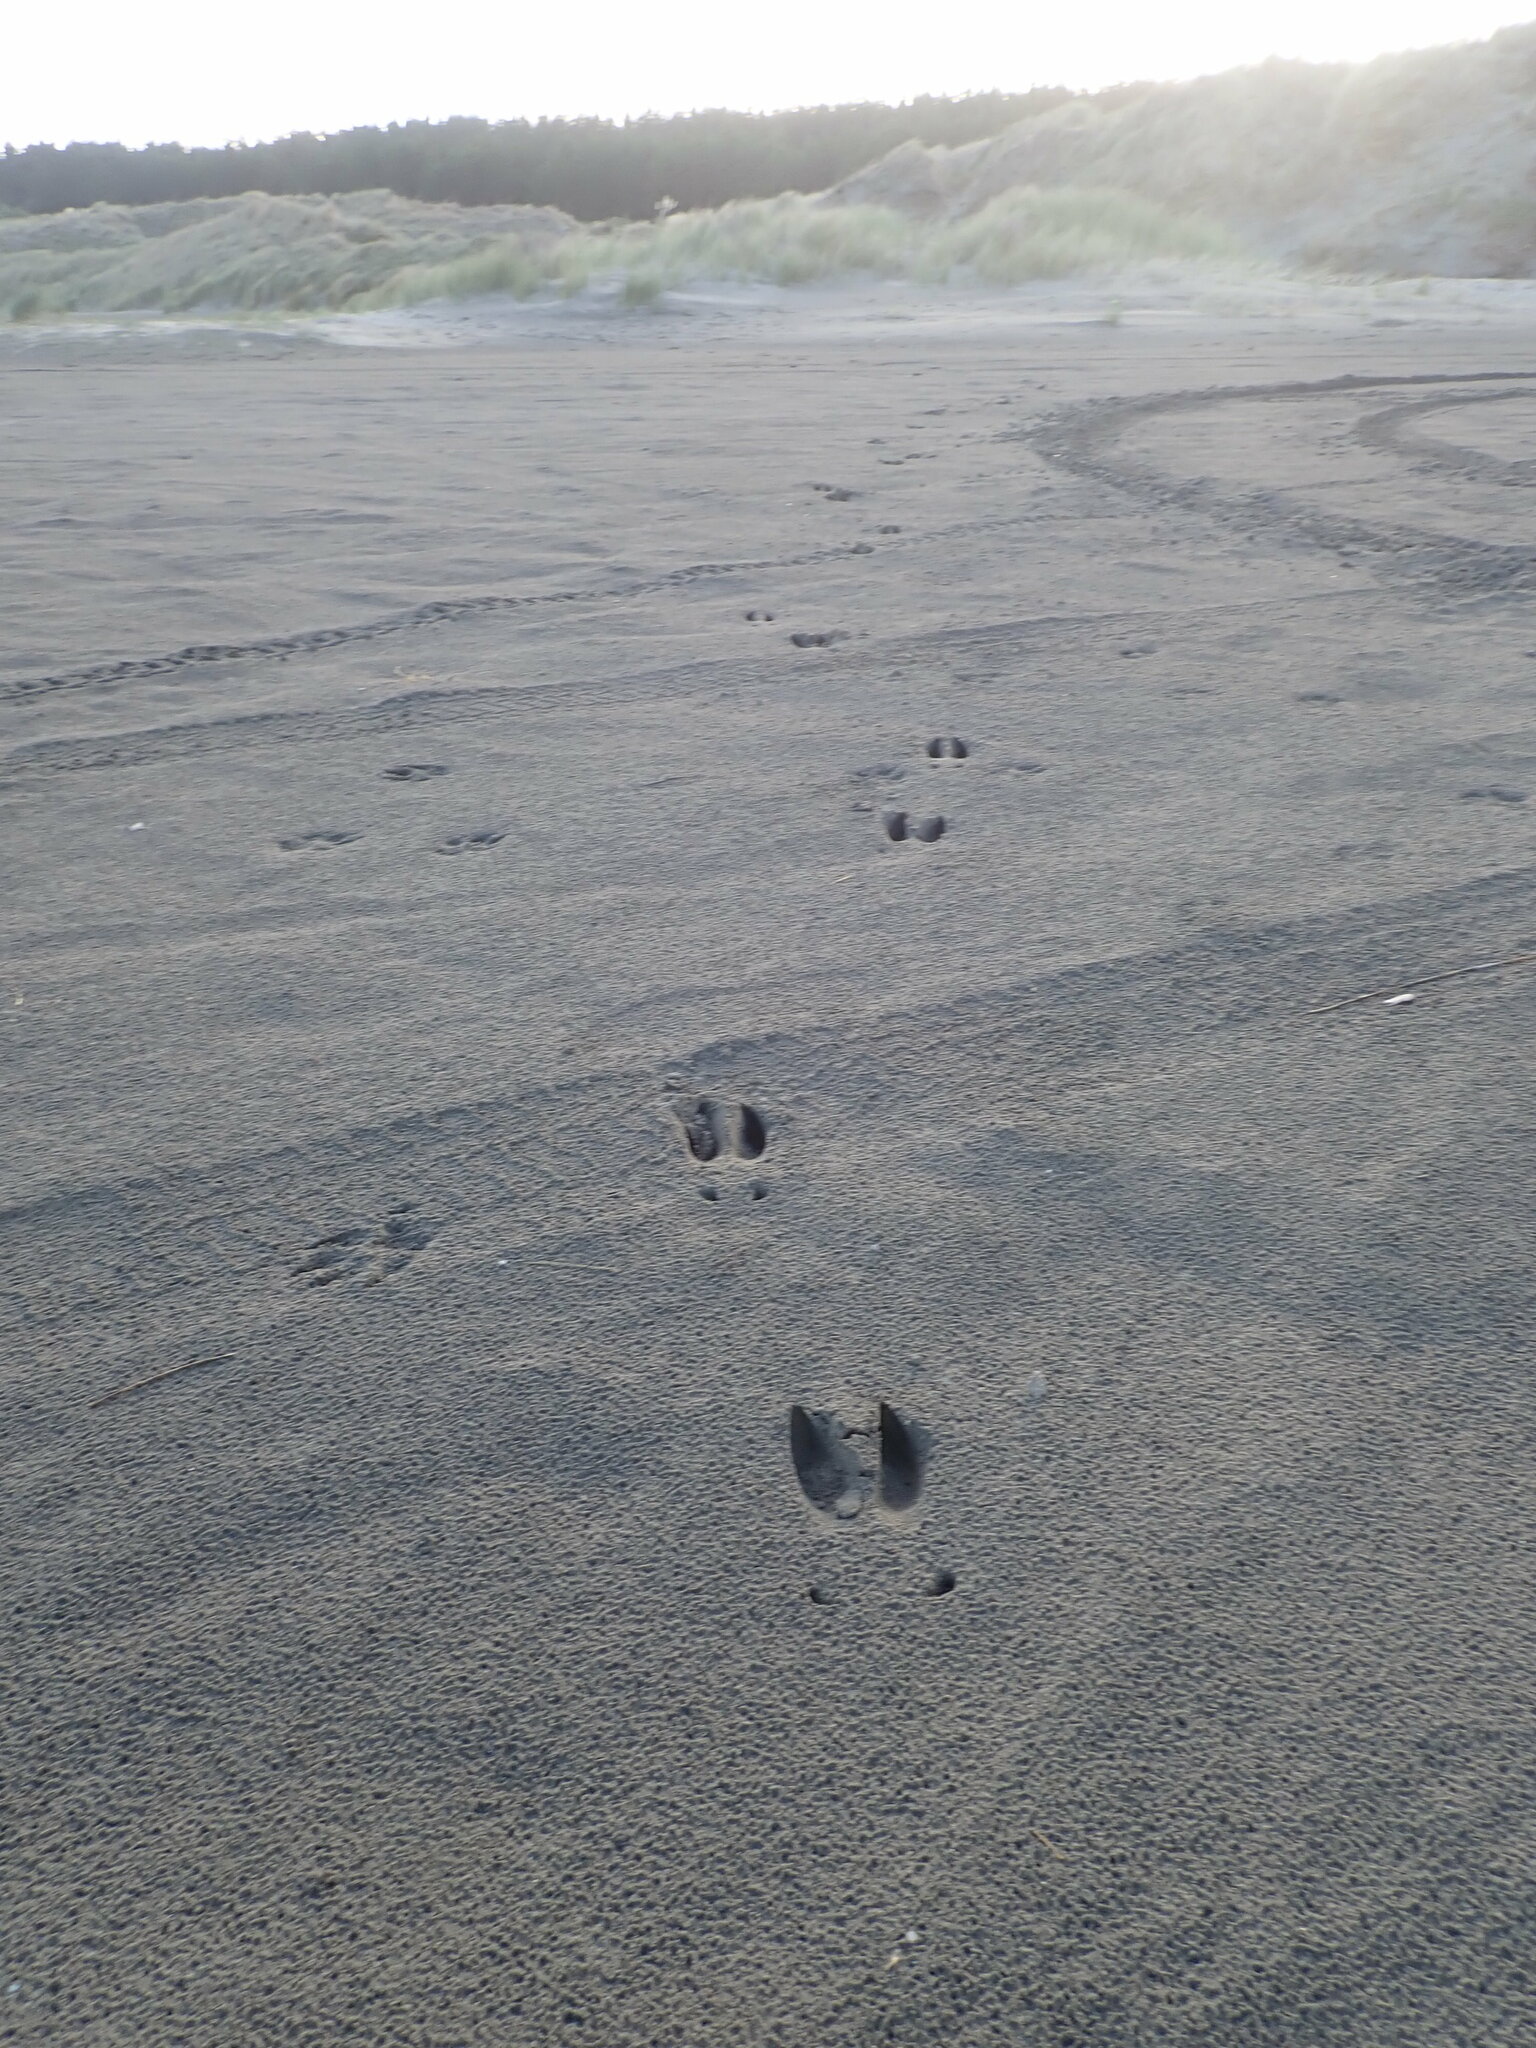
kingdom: Animalia
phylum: Chordata
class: Mammalia
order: Artiodactyla
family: Cervidae
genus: Rusa
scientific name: Rusa unicolor
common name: Sambar
